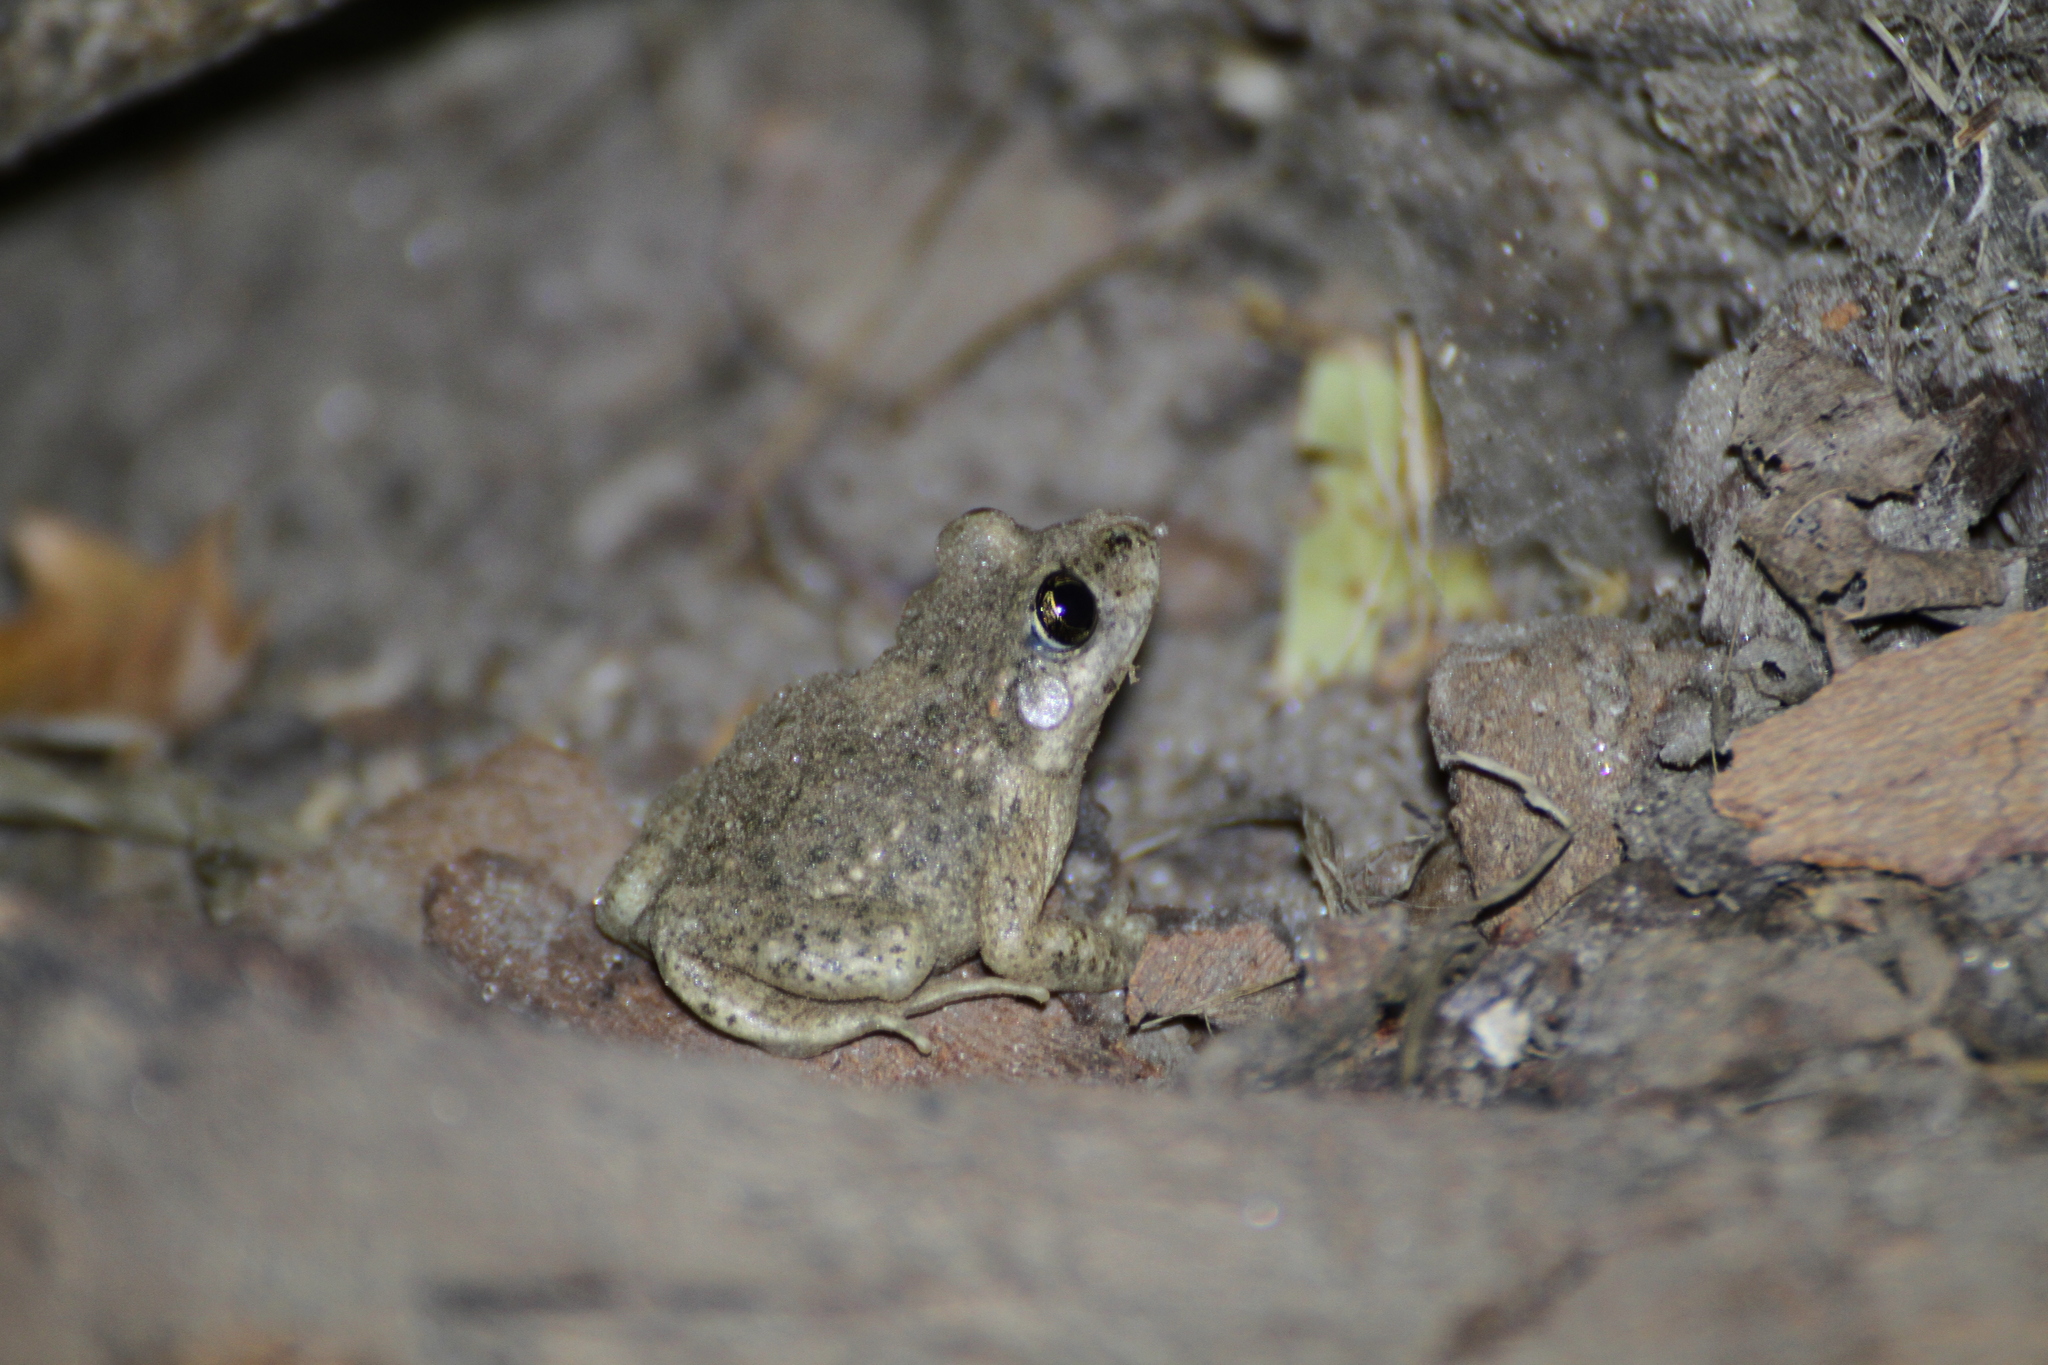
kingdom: Animalia
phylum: Chordata
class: Amphibia
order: Anura
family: Alytidae
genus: Alytes
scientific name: Alytes obstetricans
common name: Midwife toad
